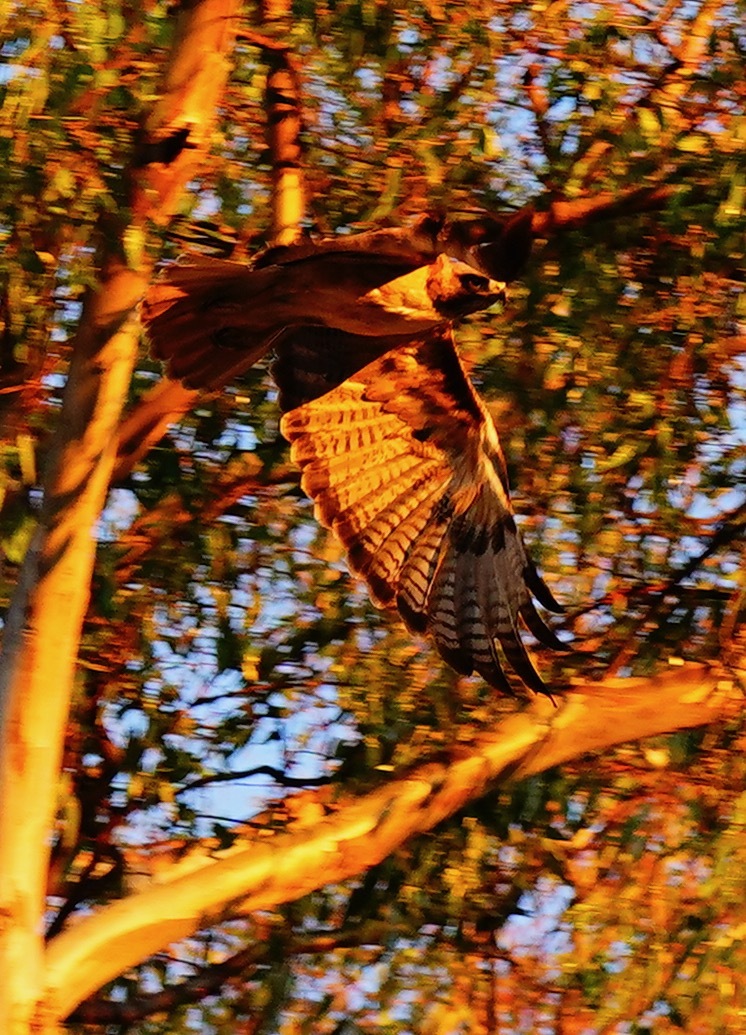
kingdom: Animalia
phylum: Chordata
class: Aves
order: Accipitriformes
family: Accipitridae
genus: Buteo
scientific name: Buteo jamaicensis
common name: Red-tailed hawk
